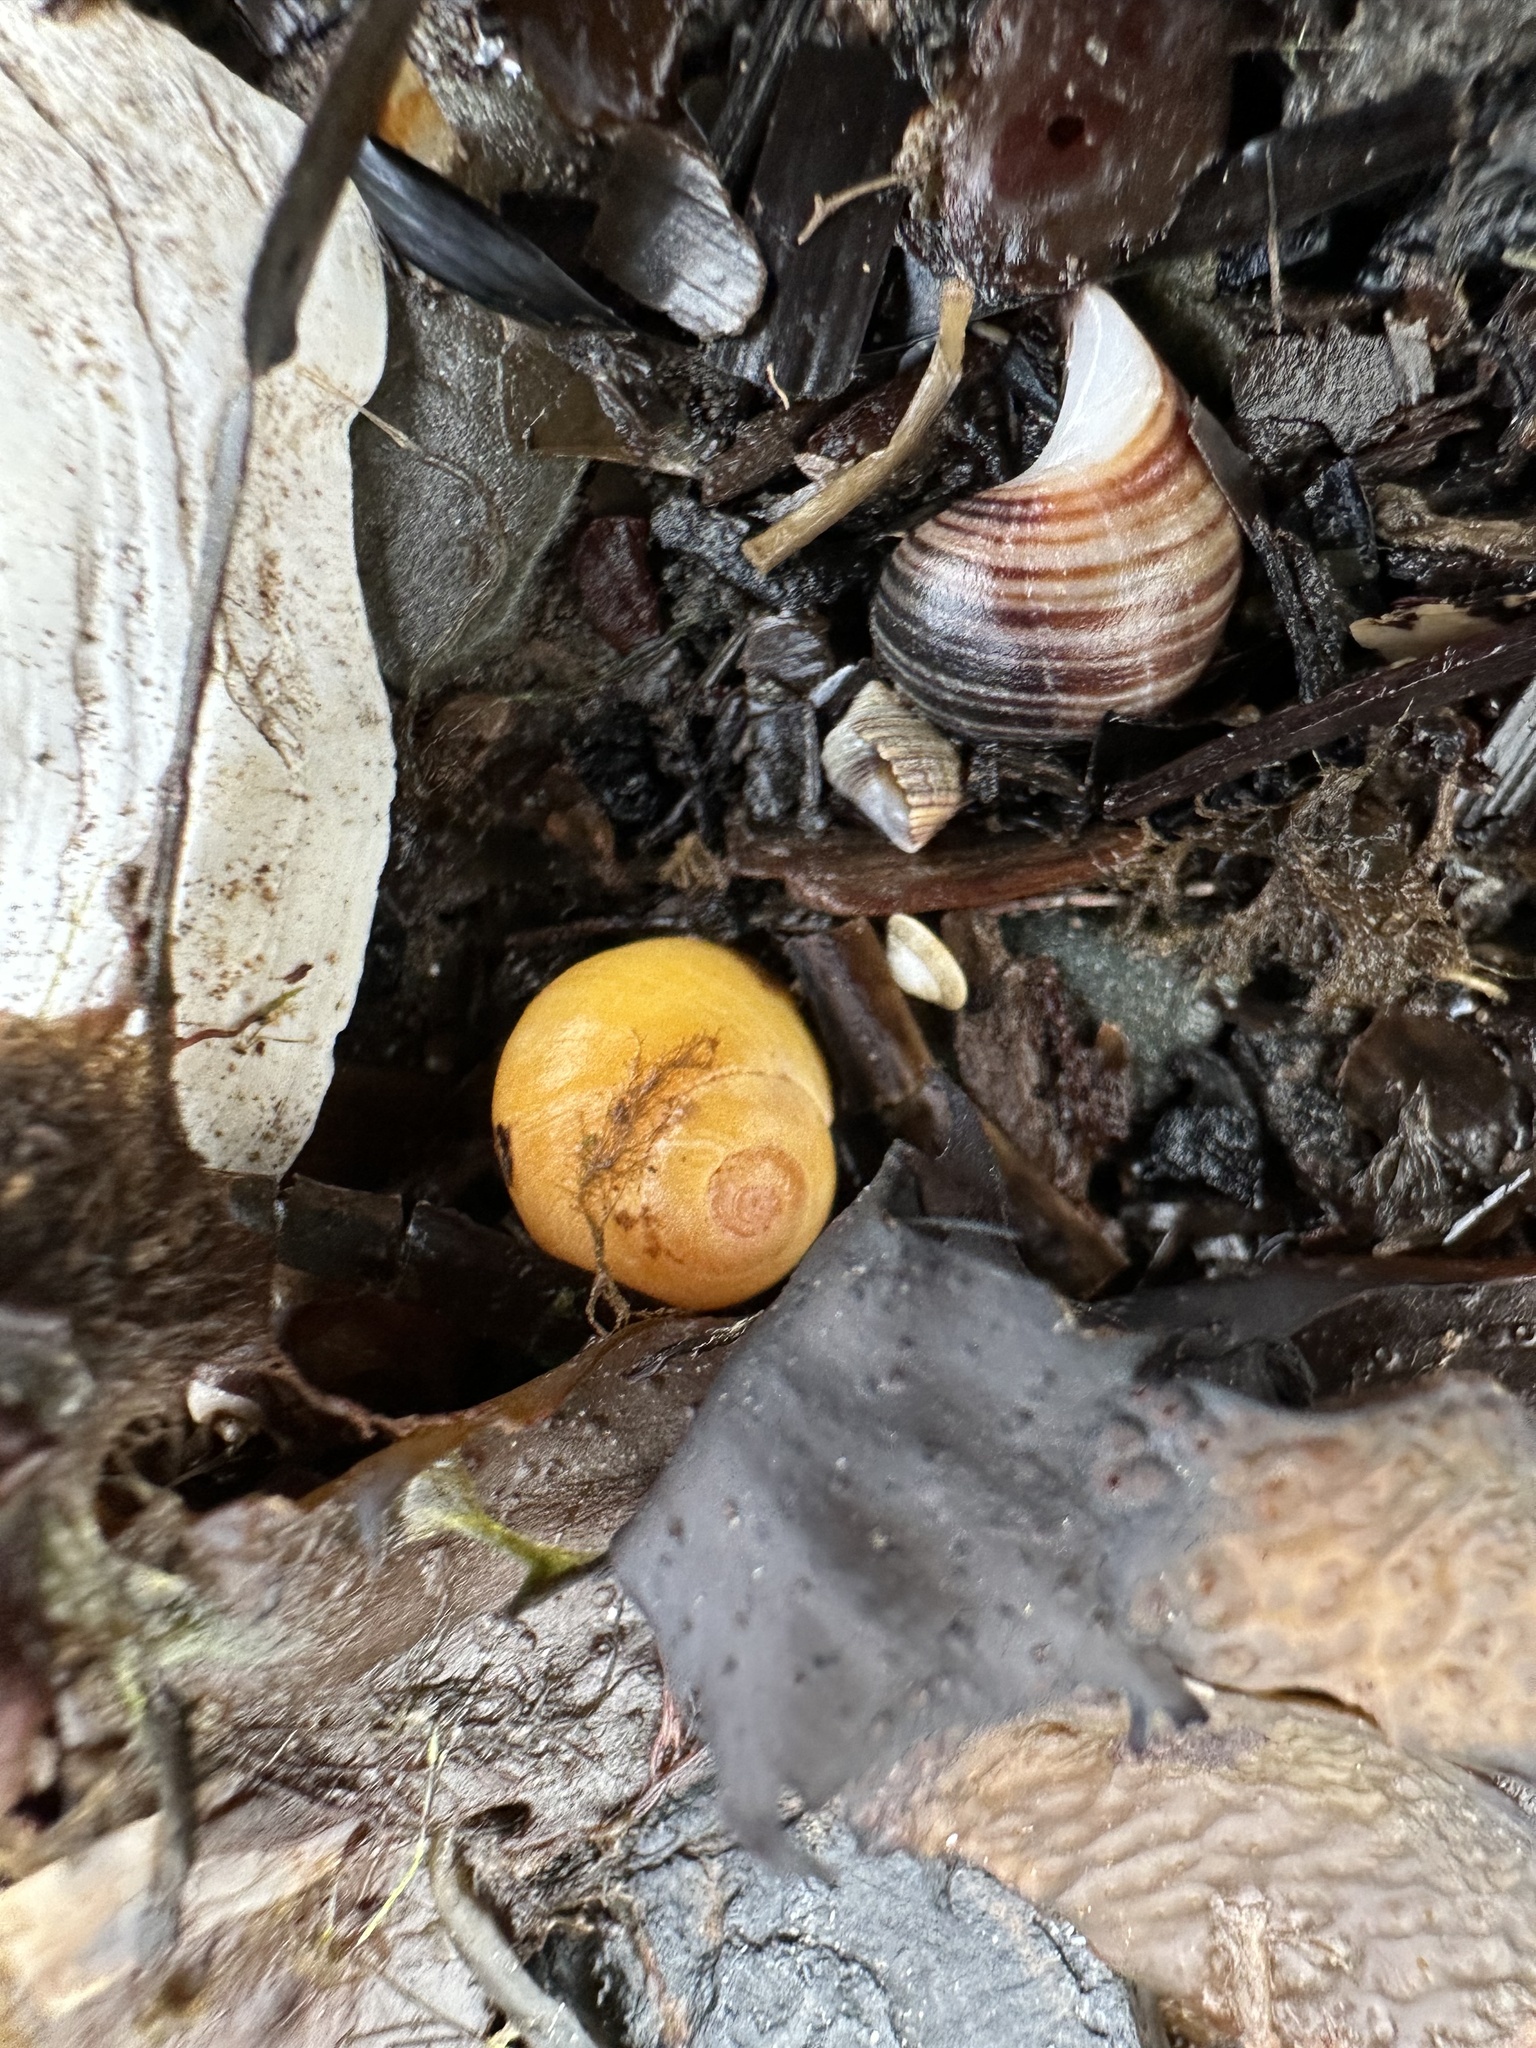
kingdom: Animalia
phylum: Mollusca
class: Gastropoda
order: Littorinimorpha
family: Littorinidae
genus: Littorina
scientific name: Littorina obtusata
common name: Flat periwinkle
